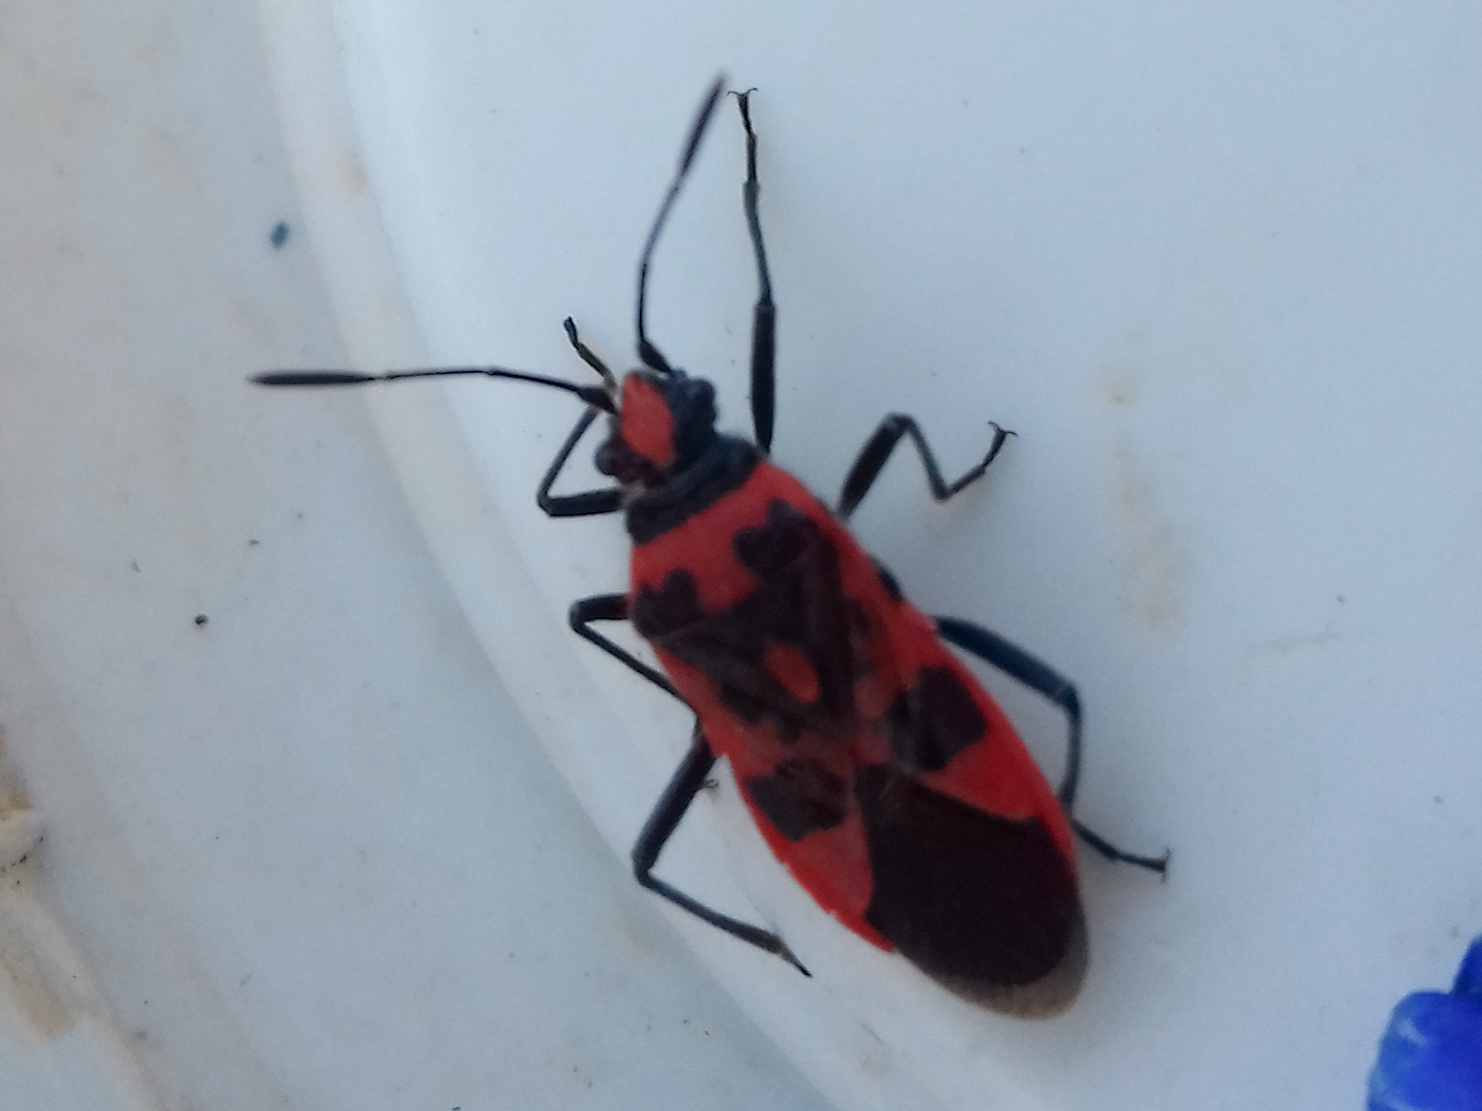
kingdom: Animalia
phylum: Arthropoda
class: Insecta
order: Hemiptera
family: Rhopalidae
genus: Corizus
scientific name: Corizus hyoscyami
